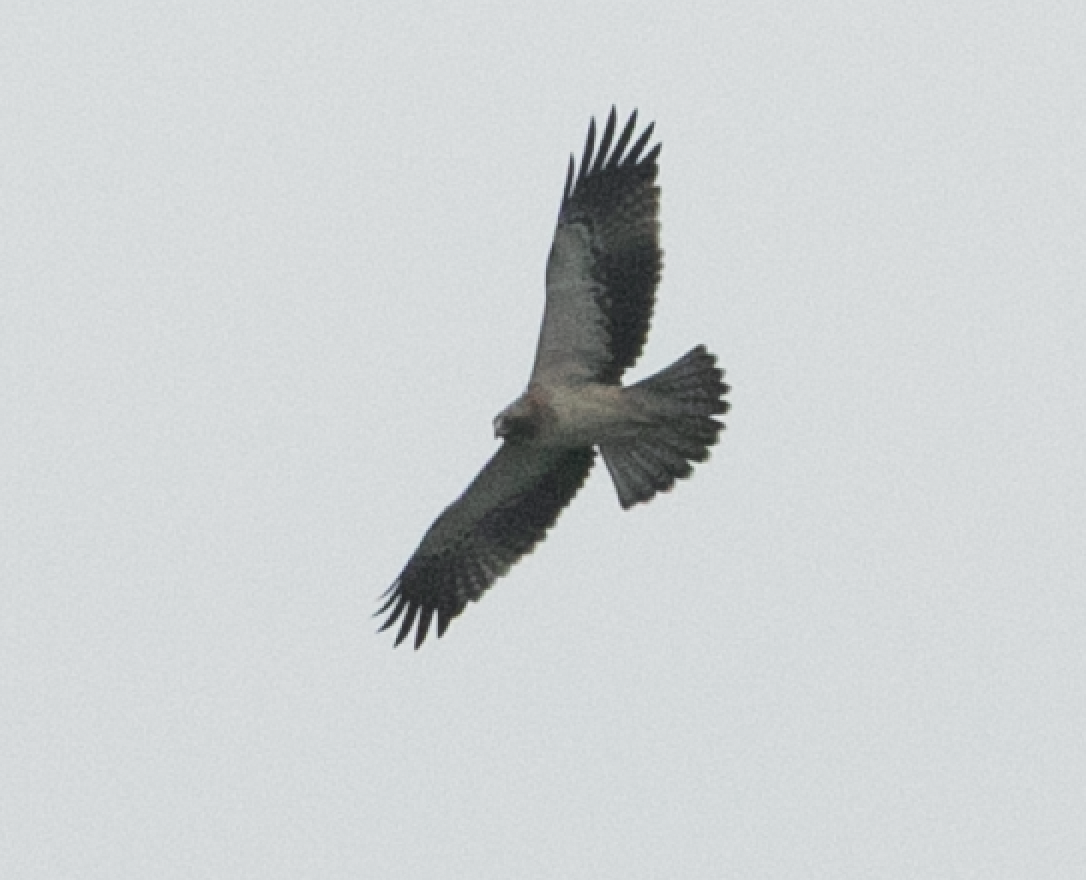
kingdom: Animalia
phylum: Chordata
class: Aves
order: Accipitriformes
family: Accipitridae
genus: Hieraaetus
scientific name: Hieraaetus pennatus
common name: Booted eagle
